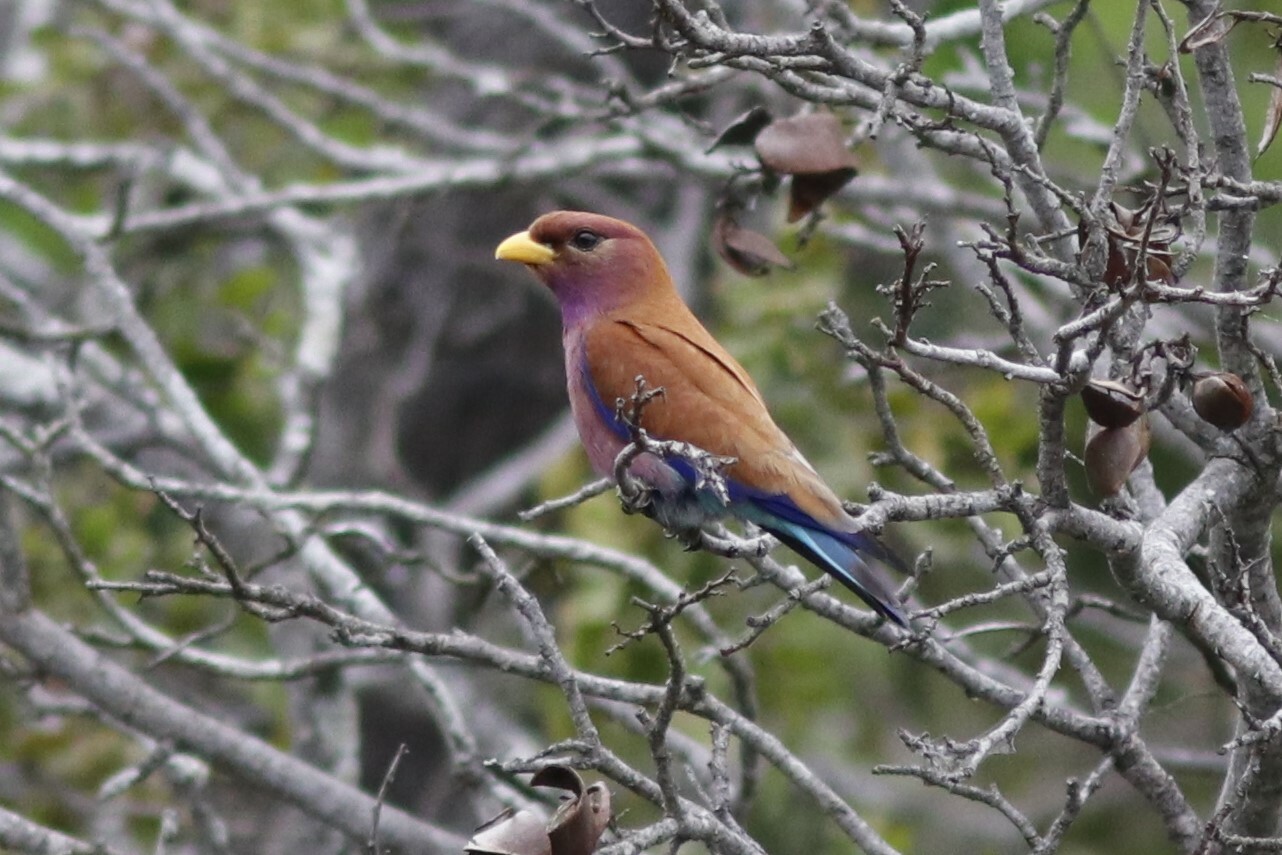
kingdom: Animalia
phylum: Chordata
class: Aves
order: Coraciiformes
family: Coraciidae
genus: Eurystomus
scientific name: Eurystomus glaucurus
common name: Broad-billed roller
